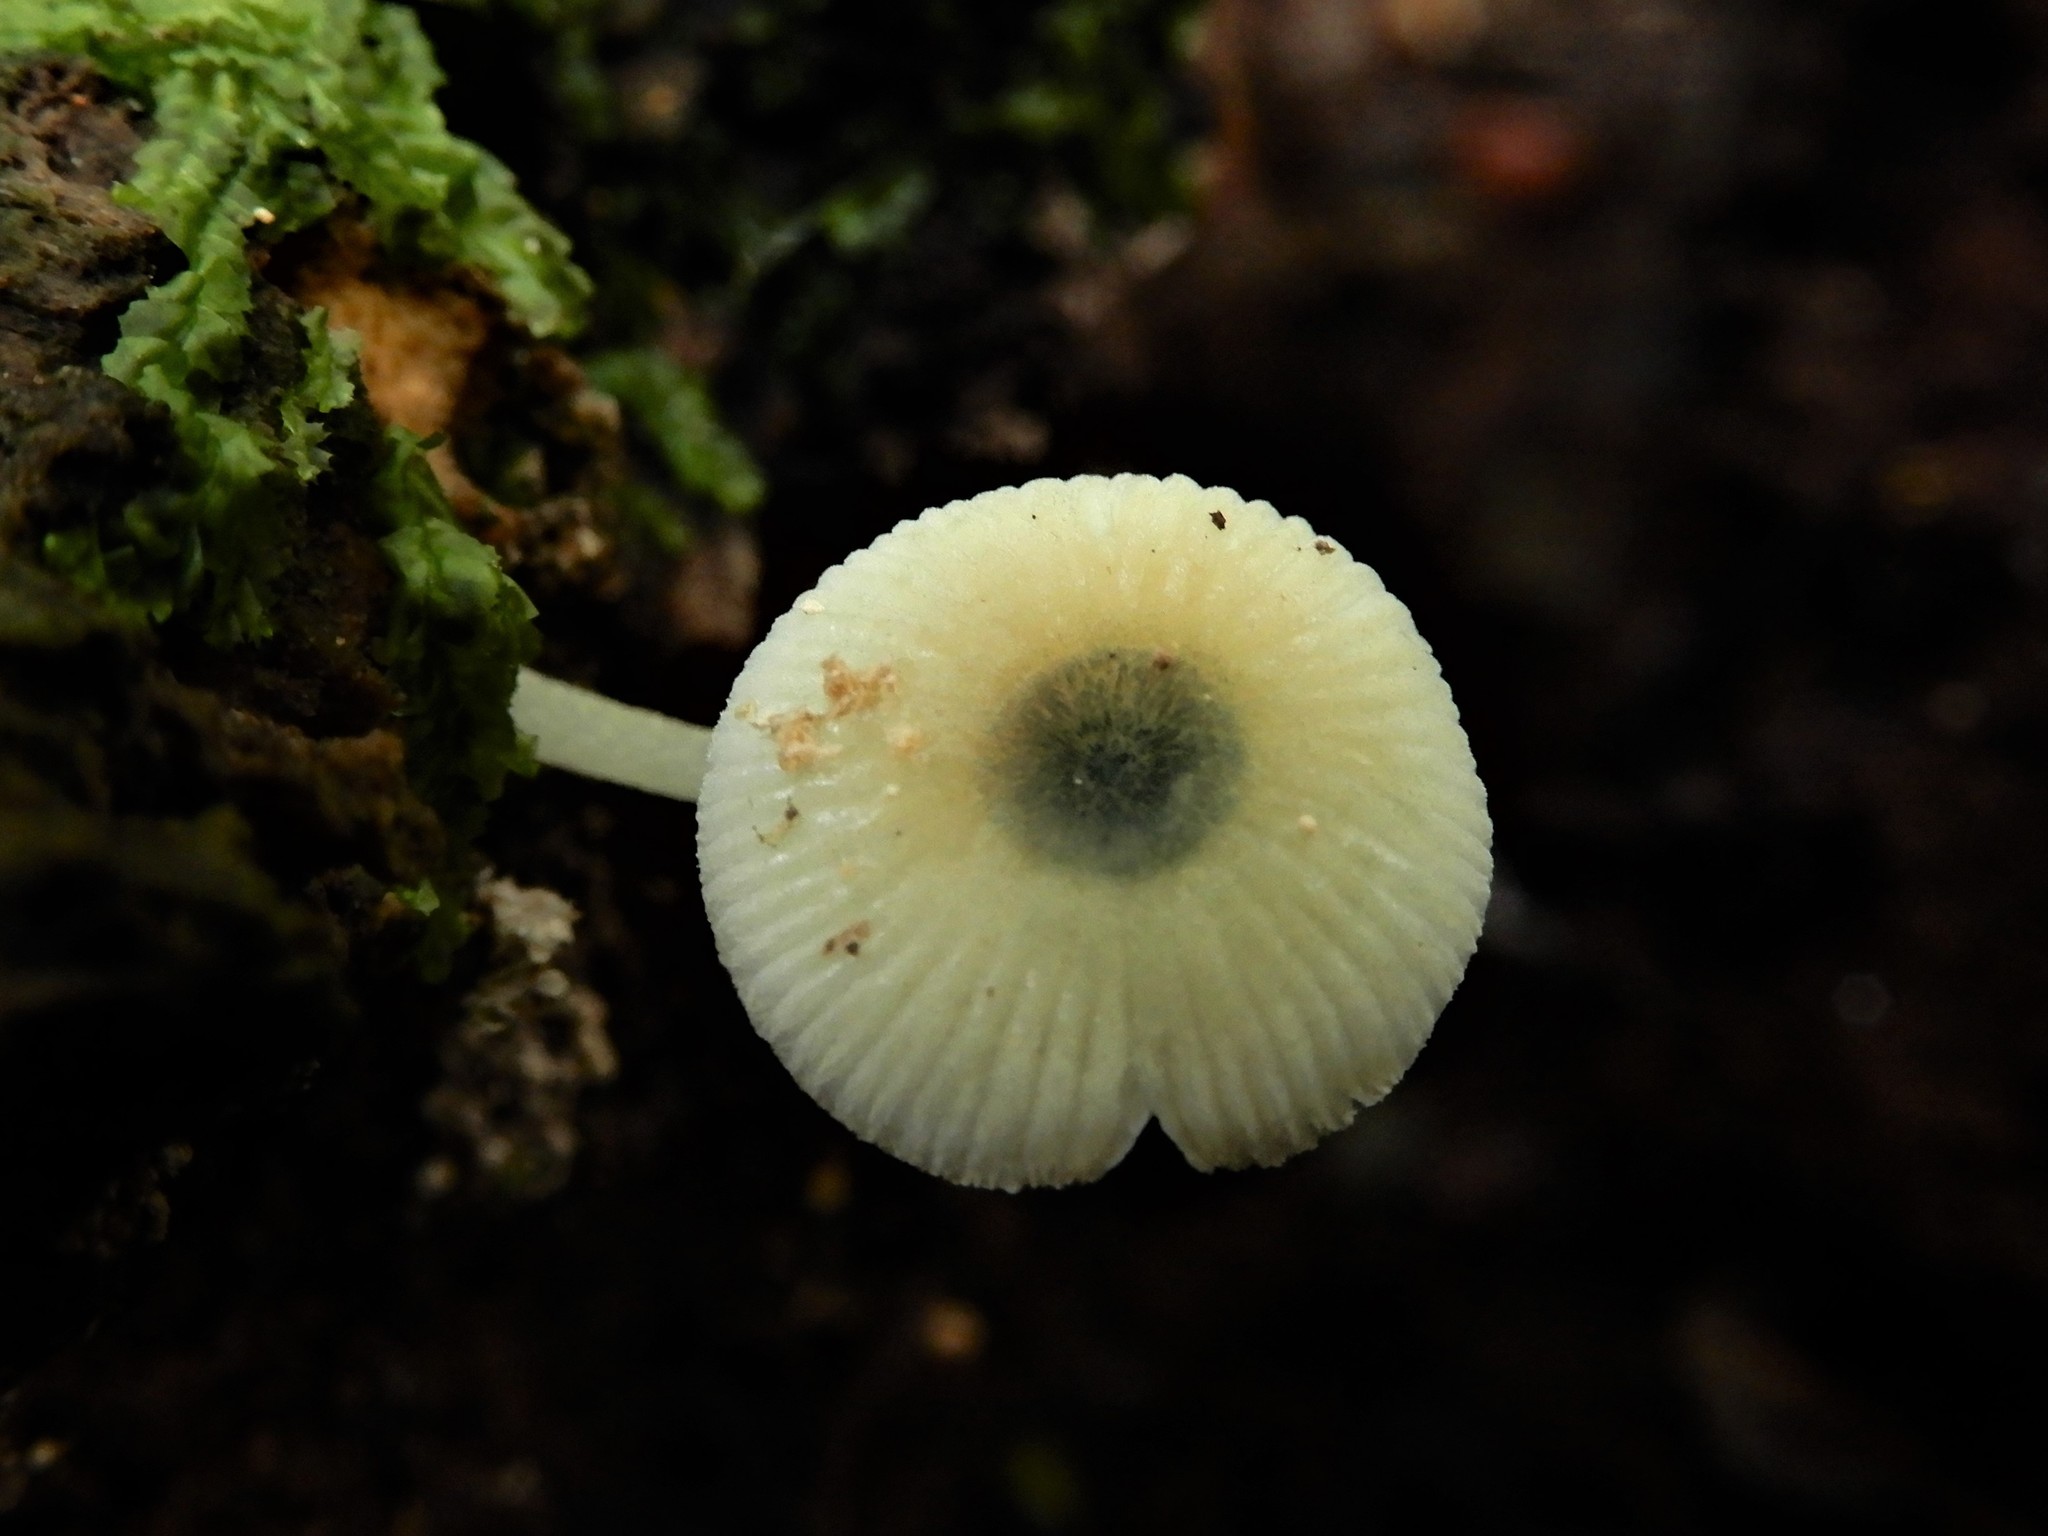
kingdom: Fungi
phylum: Basidiomycota
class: Agaricomycetes
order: Agaricales
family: Mycenaceae
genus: Mycena
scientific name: Mycena interrupta
